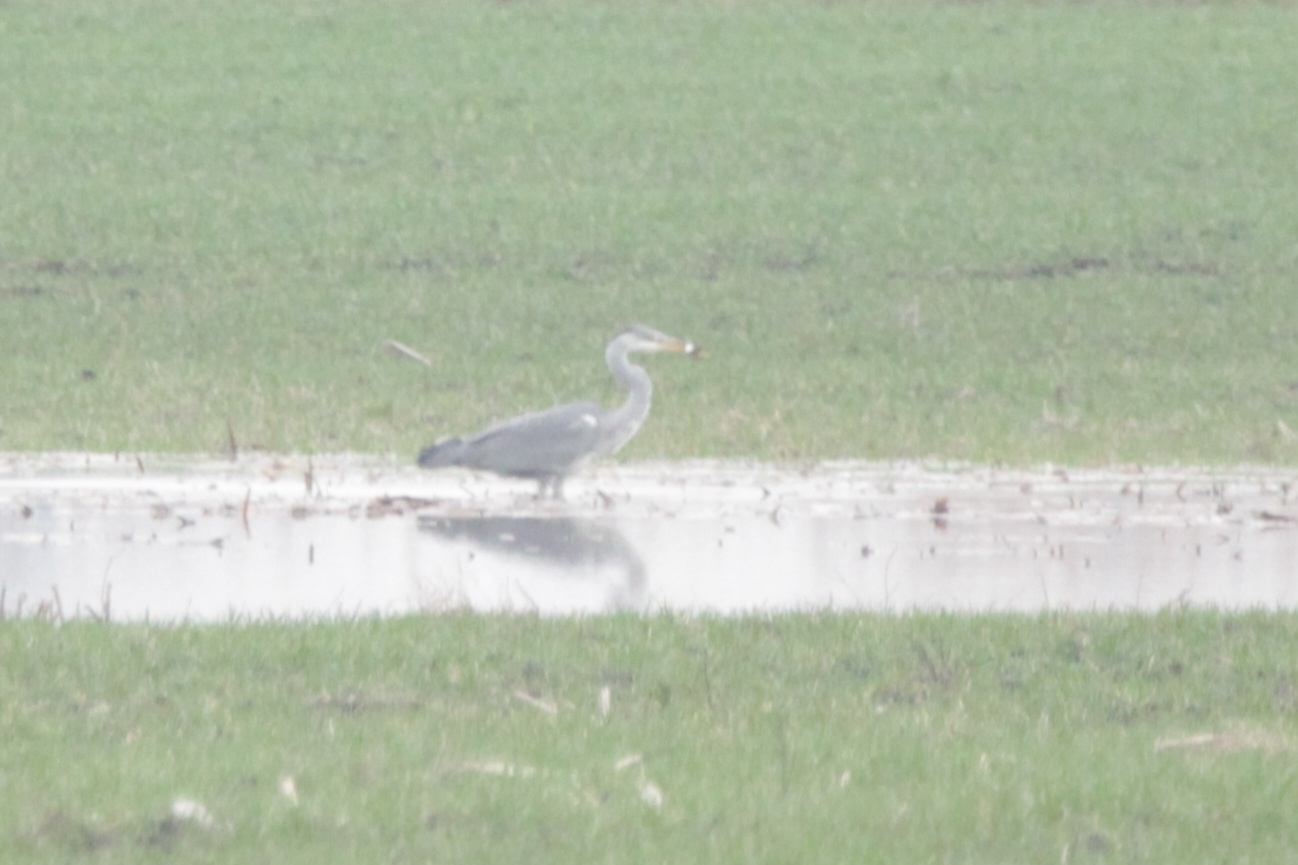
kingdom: Animalia
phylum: Chordata
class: Aves
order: Pelecaniformes
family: Ardeidae
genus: Ardea
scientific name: Ardea cinerea
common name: Grey heron
